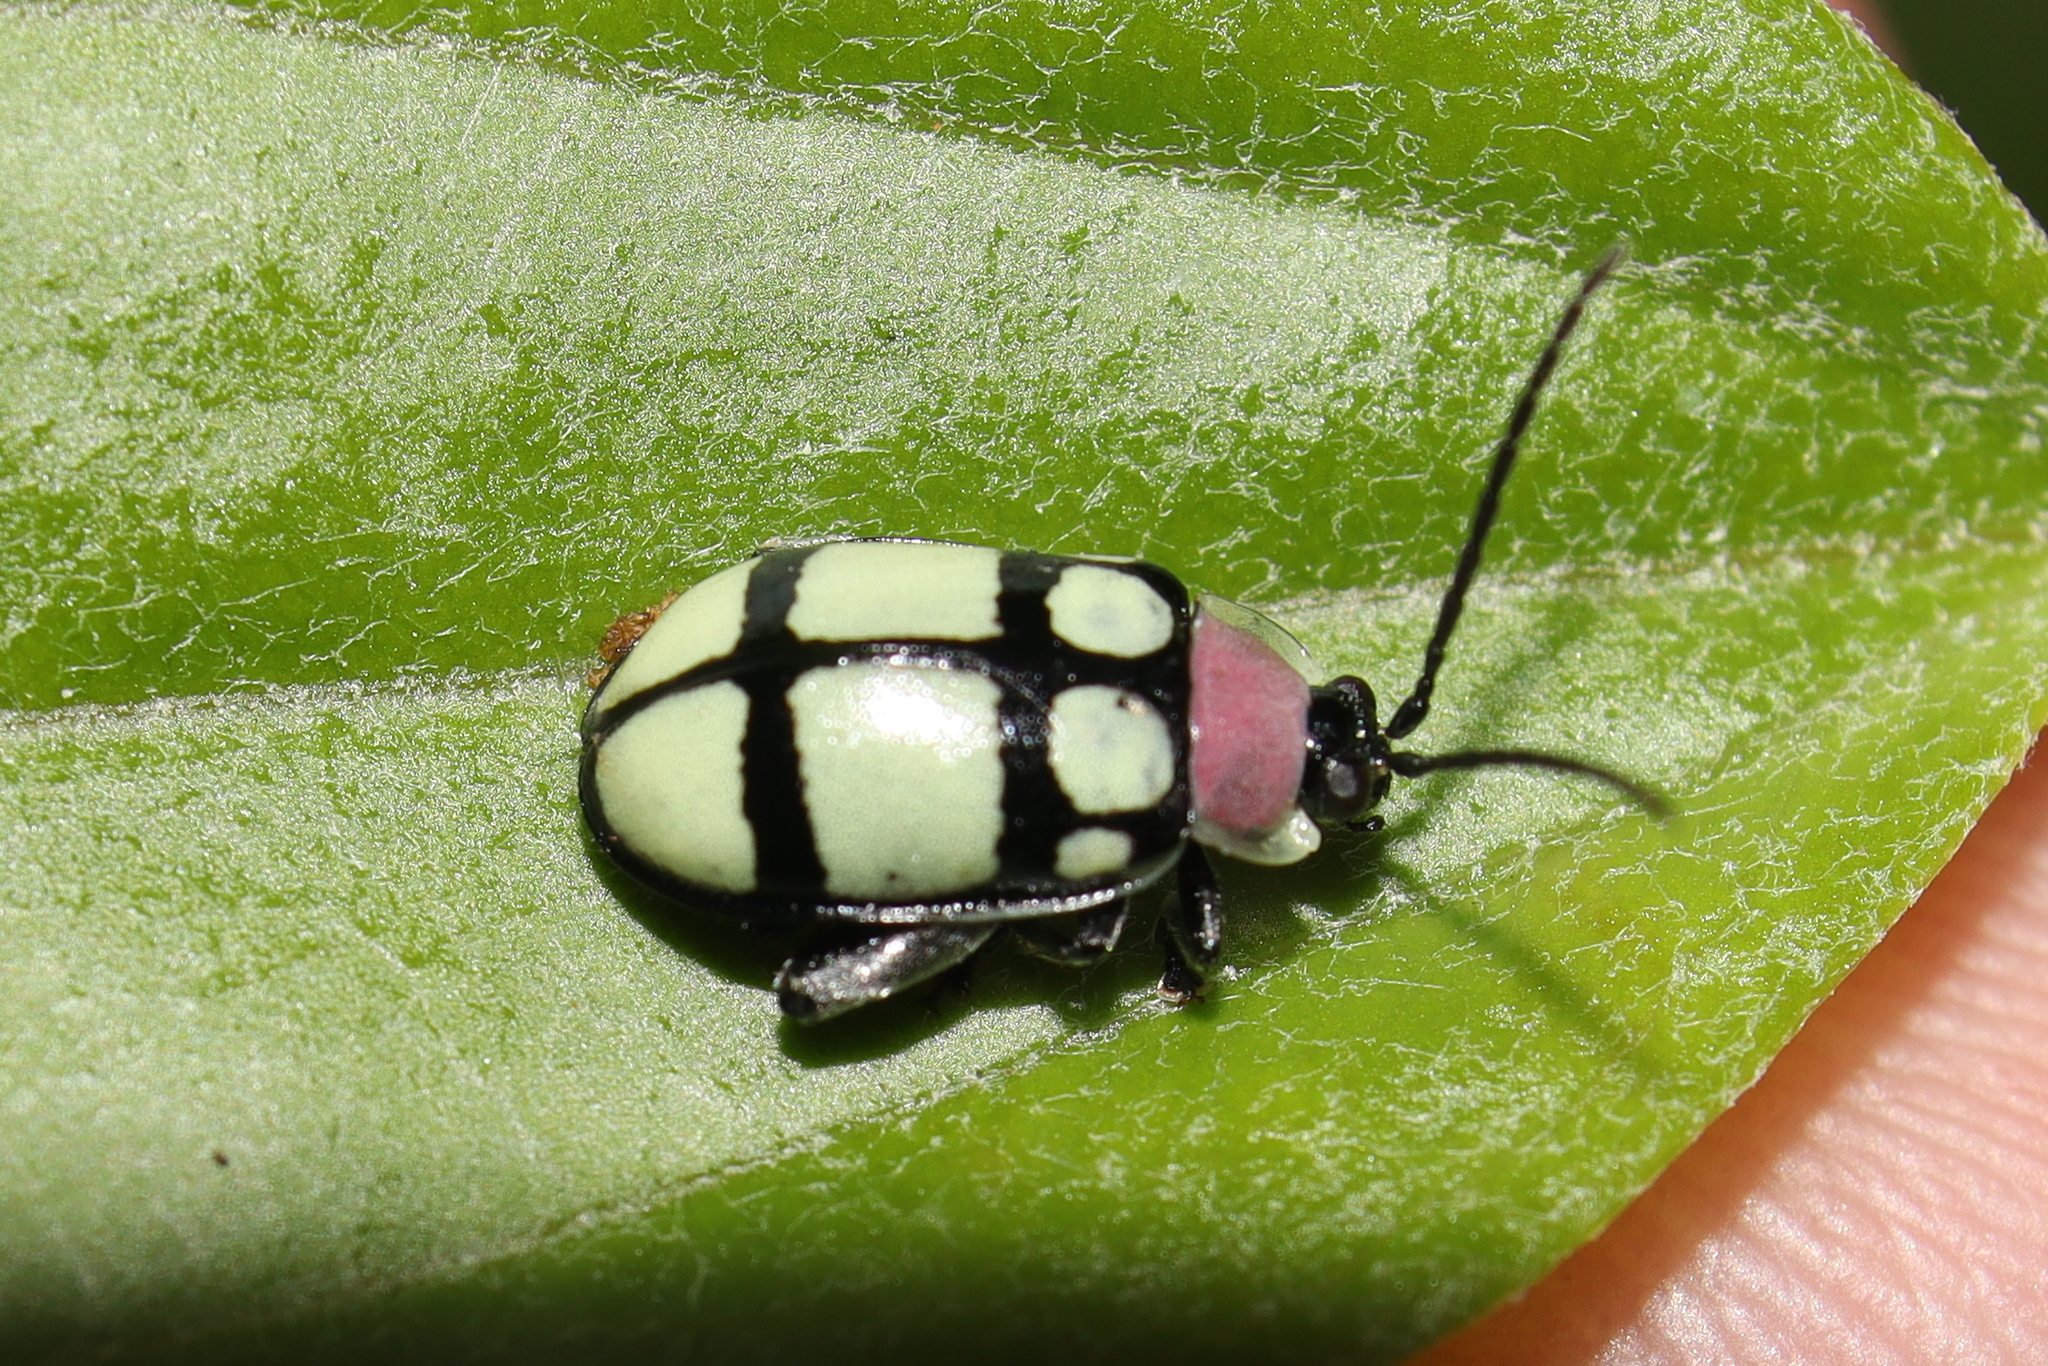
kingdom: Animalia
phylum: Arthropoda
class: Insecta
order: Coleoptera
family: Chrysomelidae
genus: Alagoasa
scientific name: Alagoasa
